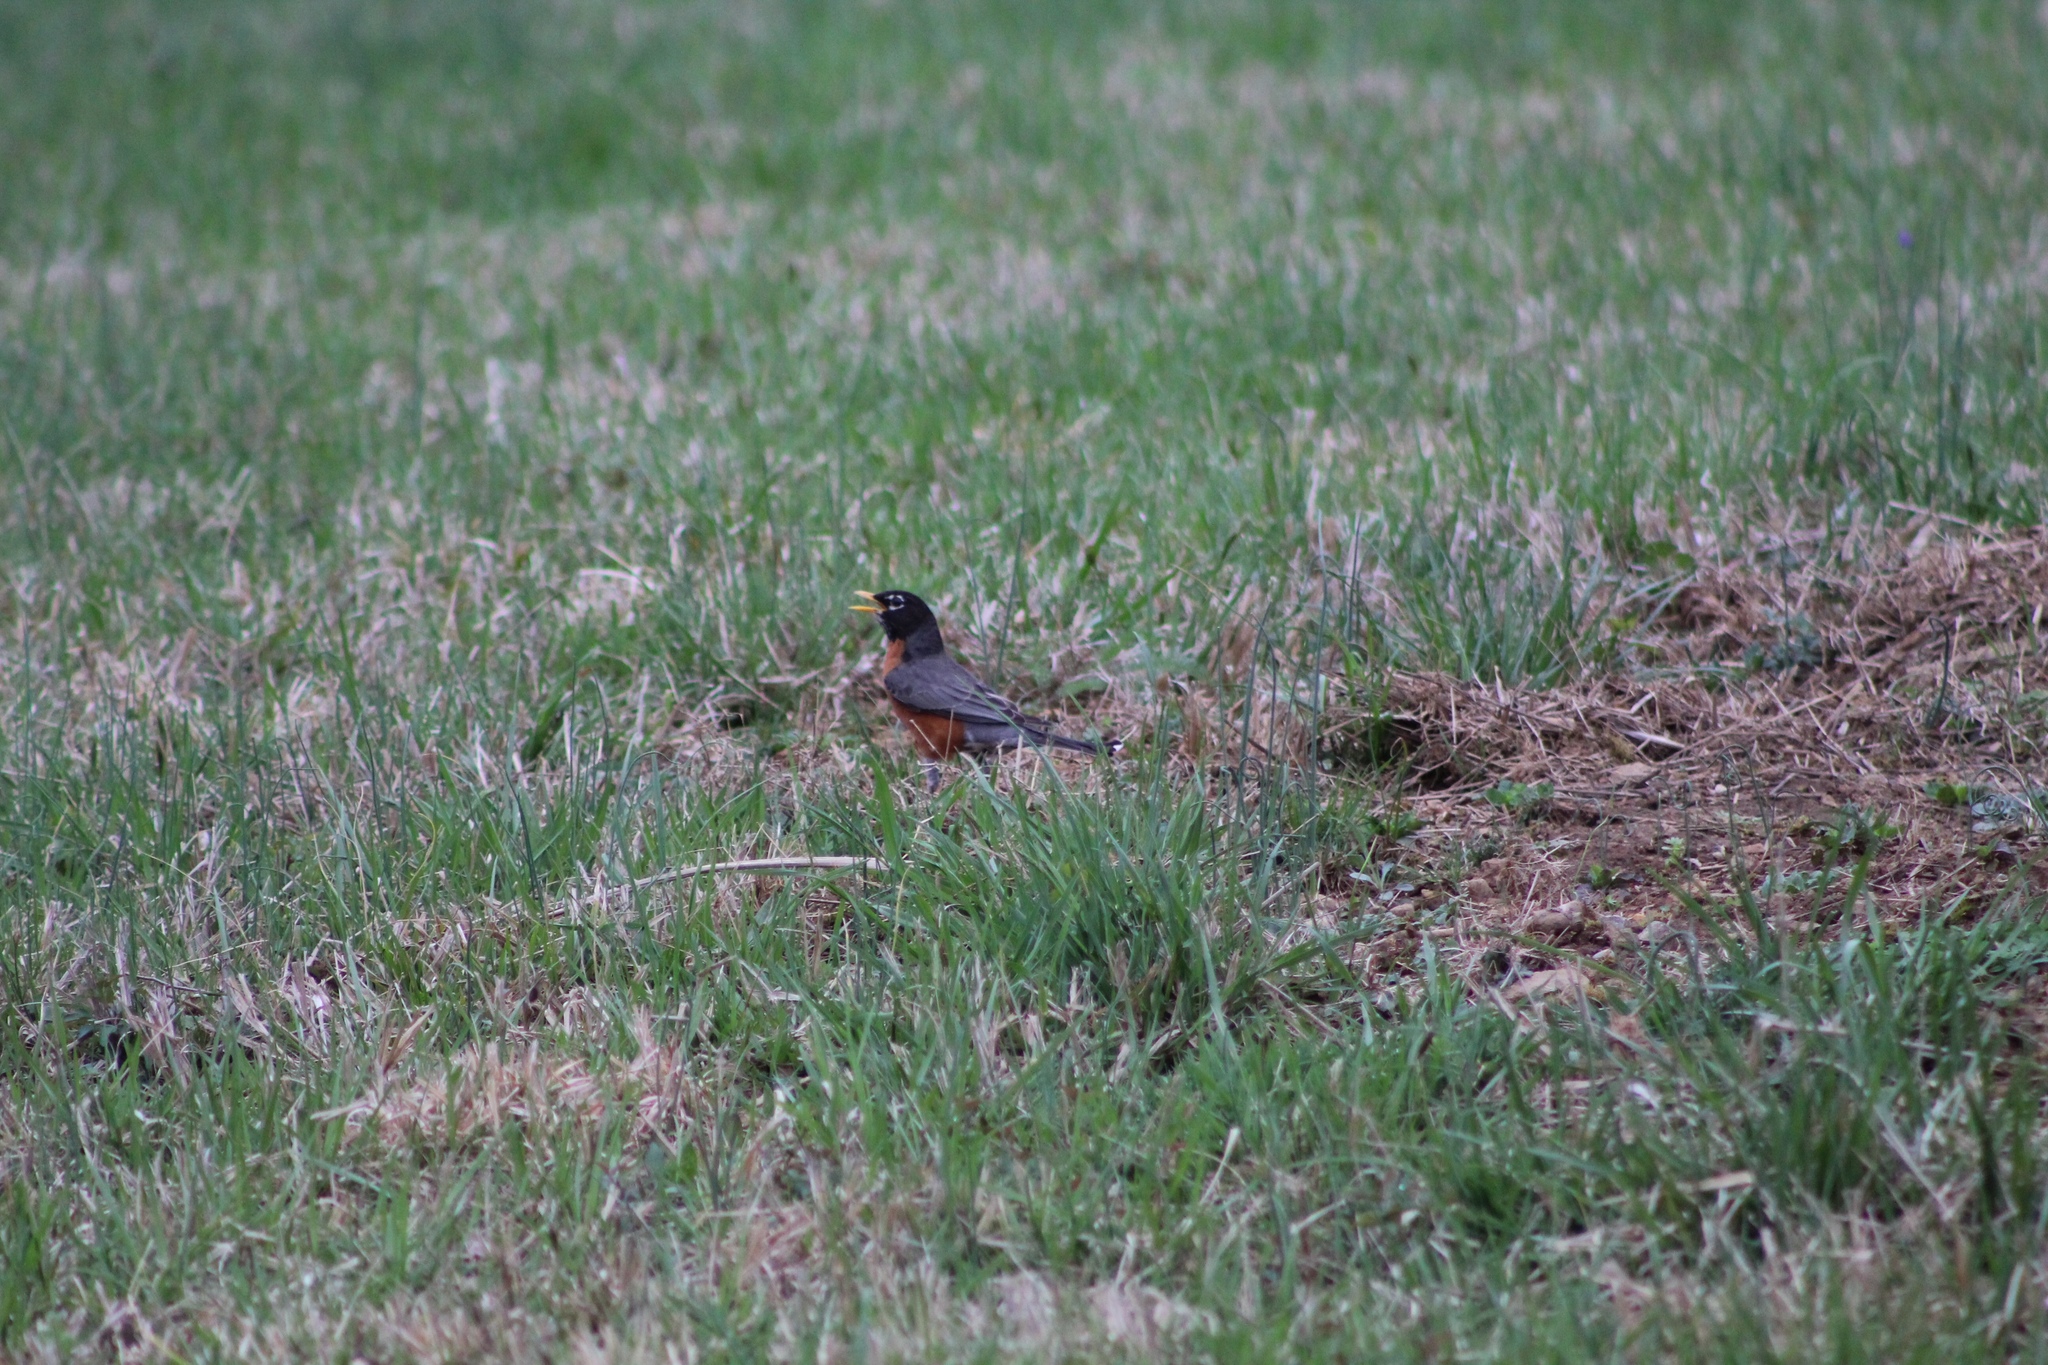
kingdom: Animalia
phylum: Chordata
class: Aves
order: Passeriformes
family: Turdidae
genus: Turdus
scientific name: Turdus migratorius
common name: American robin
